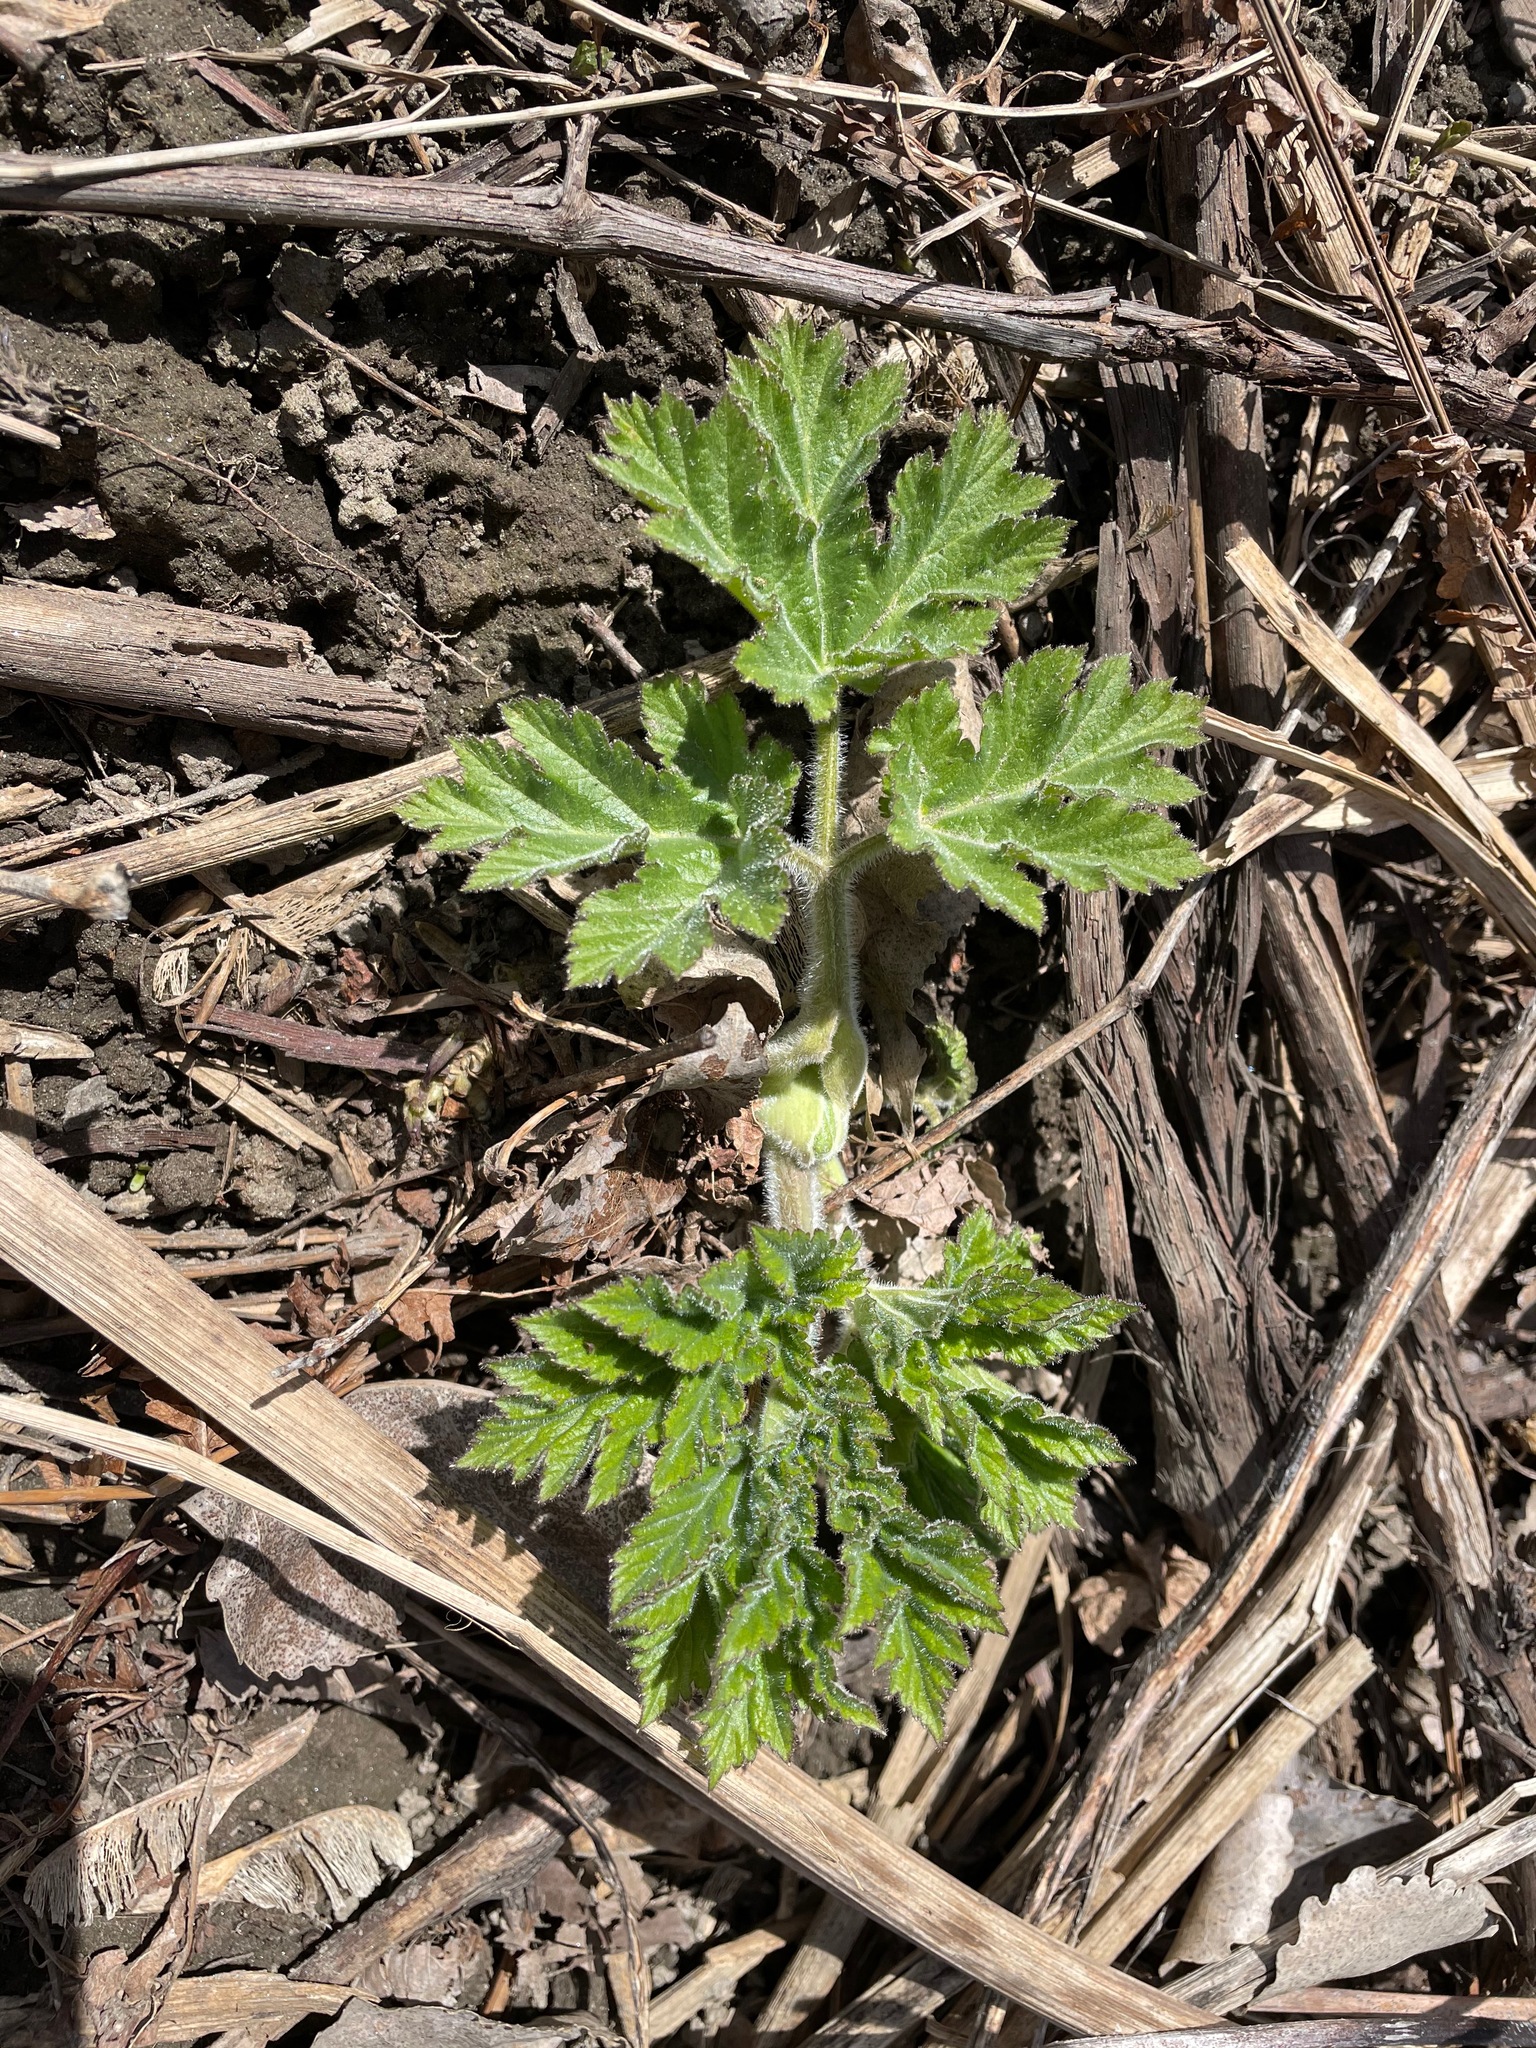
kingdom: Plantae
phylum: Tracheophyta
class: Magnoliopsida
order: Apiales
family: Apiaceae
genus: Heracleum
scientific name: Heracleum maximum
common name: American cow parsnip
